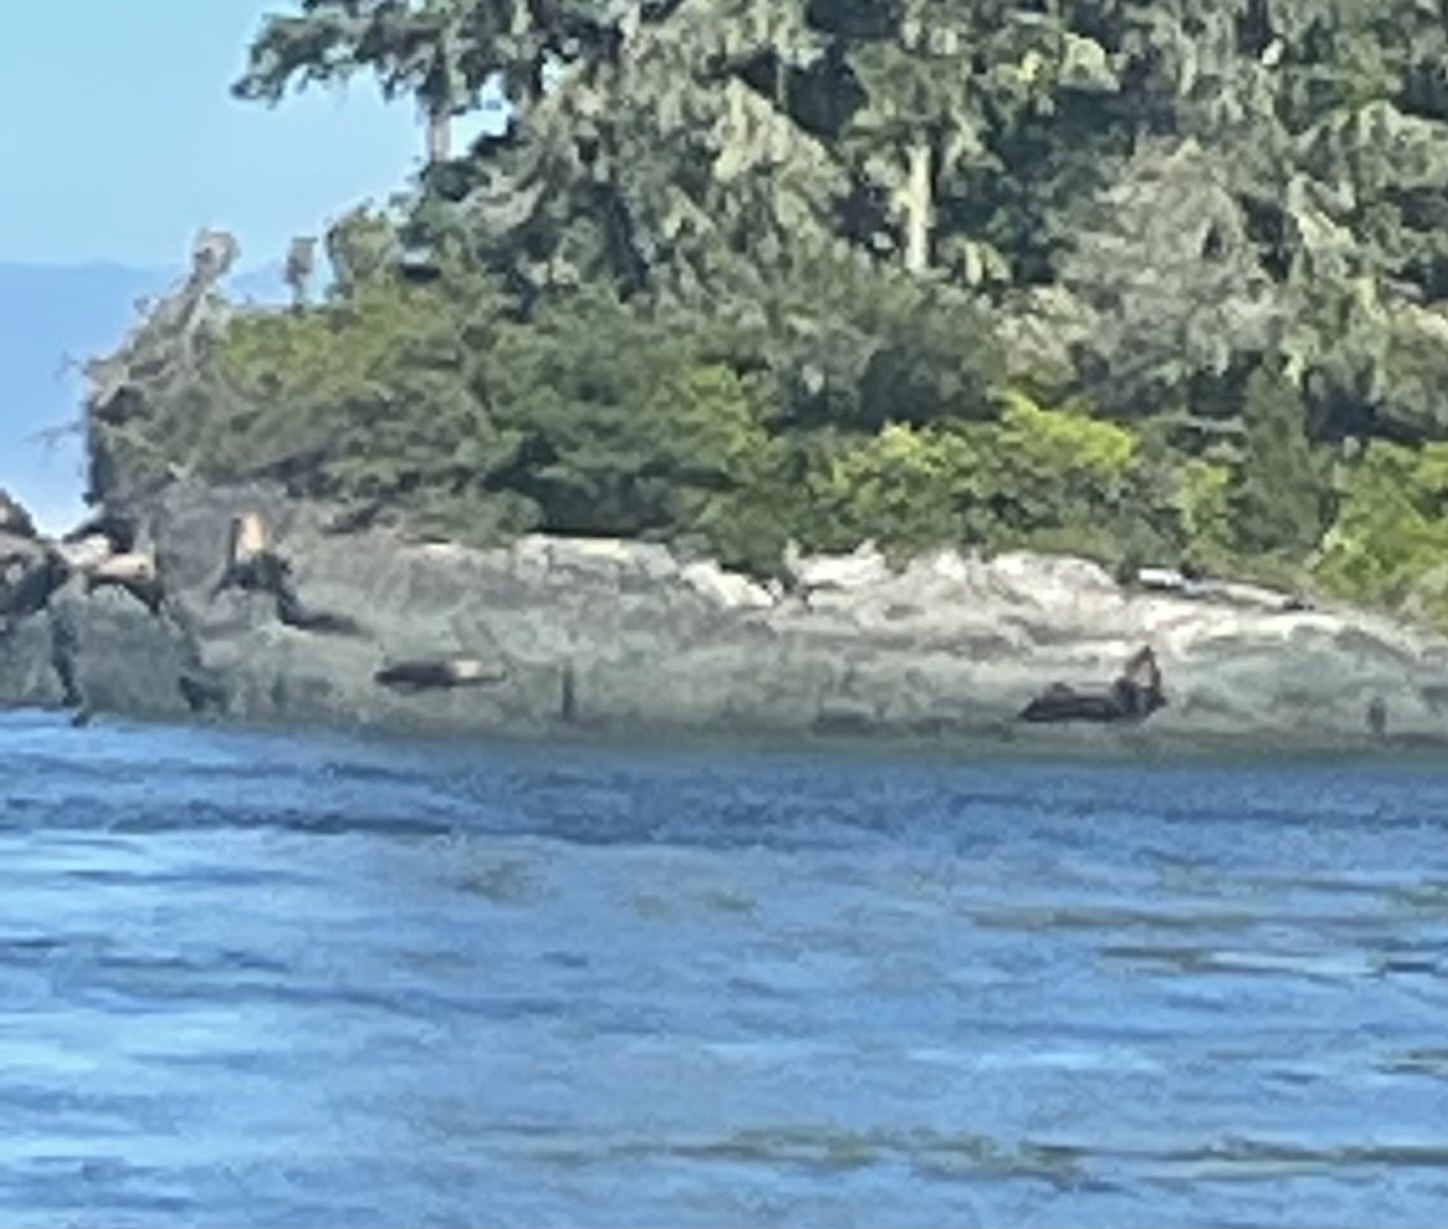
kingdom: Animalia
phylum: Chordata
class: Mammalia
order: Carnivora
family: Otariidae
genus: Eumetopias
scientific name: Eumetopias jubatus
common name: Steller sea lion
